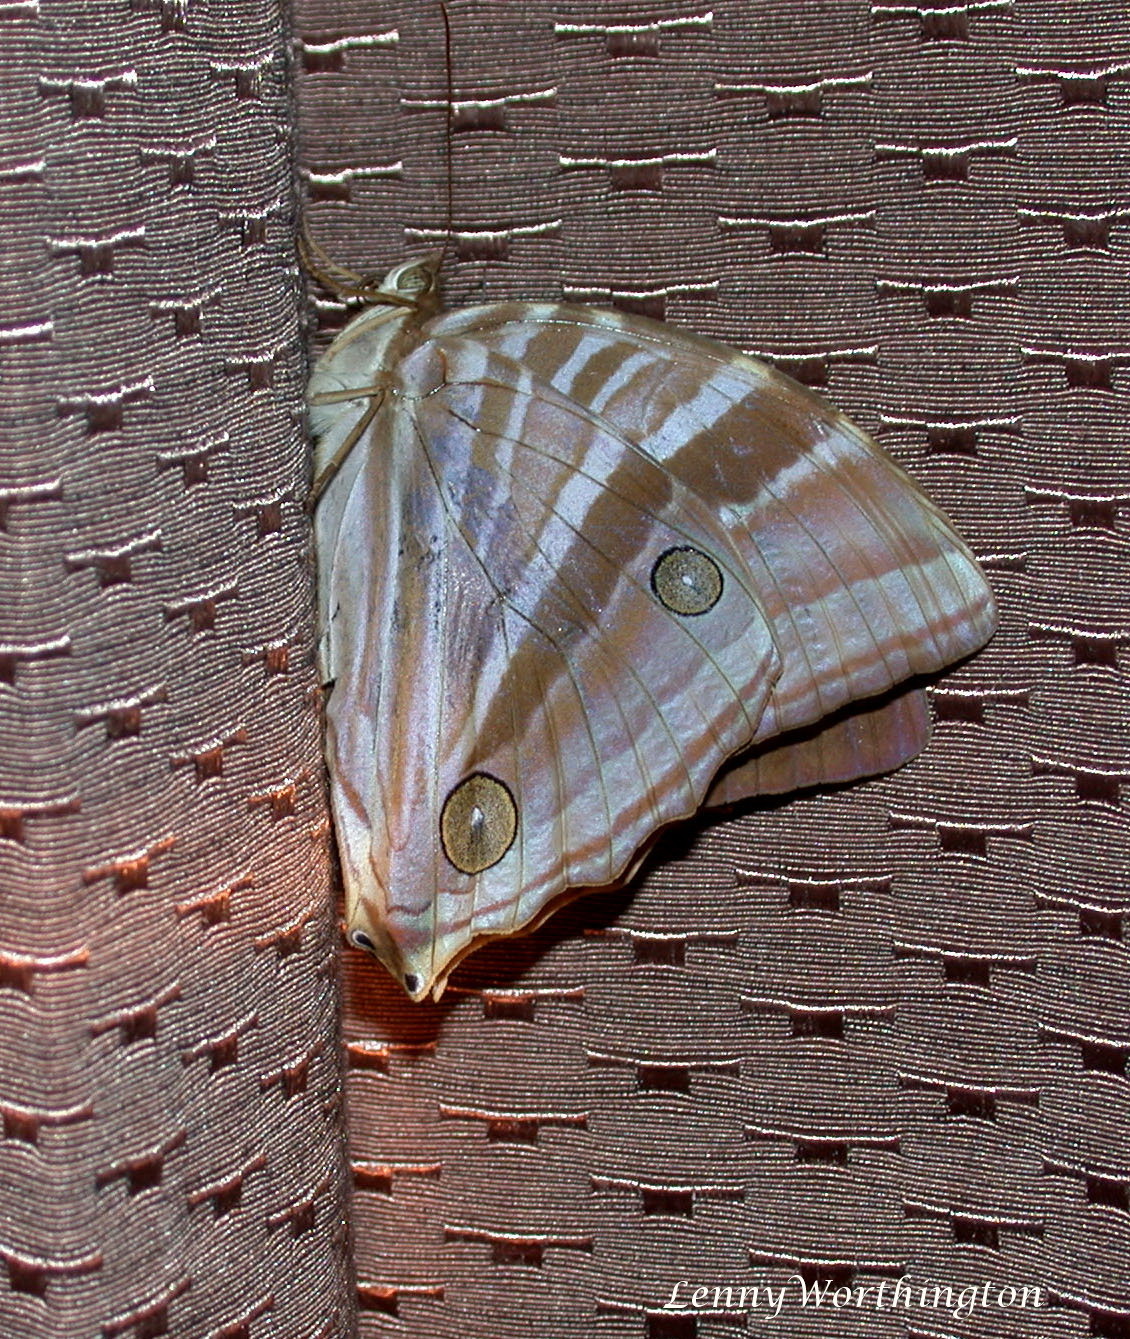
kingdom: Animalia
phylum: Arthropoda
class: Insecta
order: Lepidoptera
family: Nymphalidae
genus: Amathusia
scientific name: Amathusia phidippus
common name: Palm king
